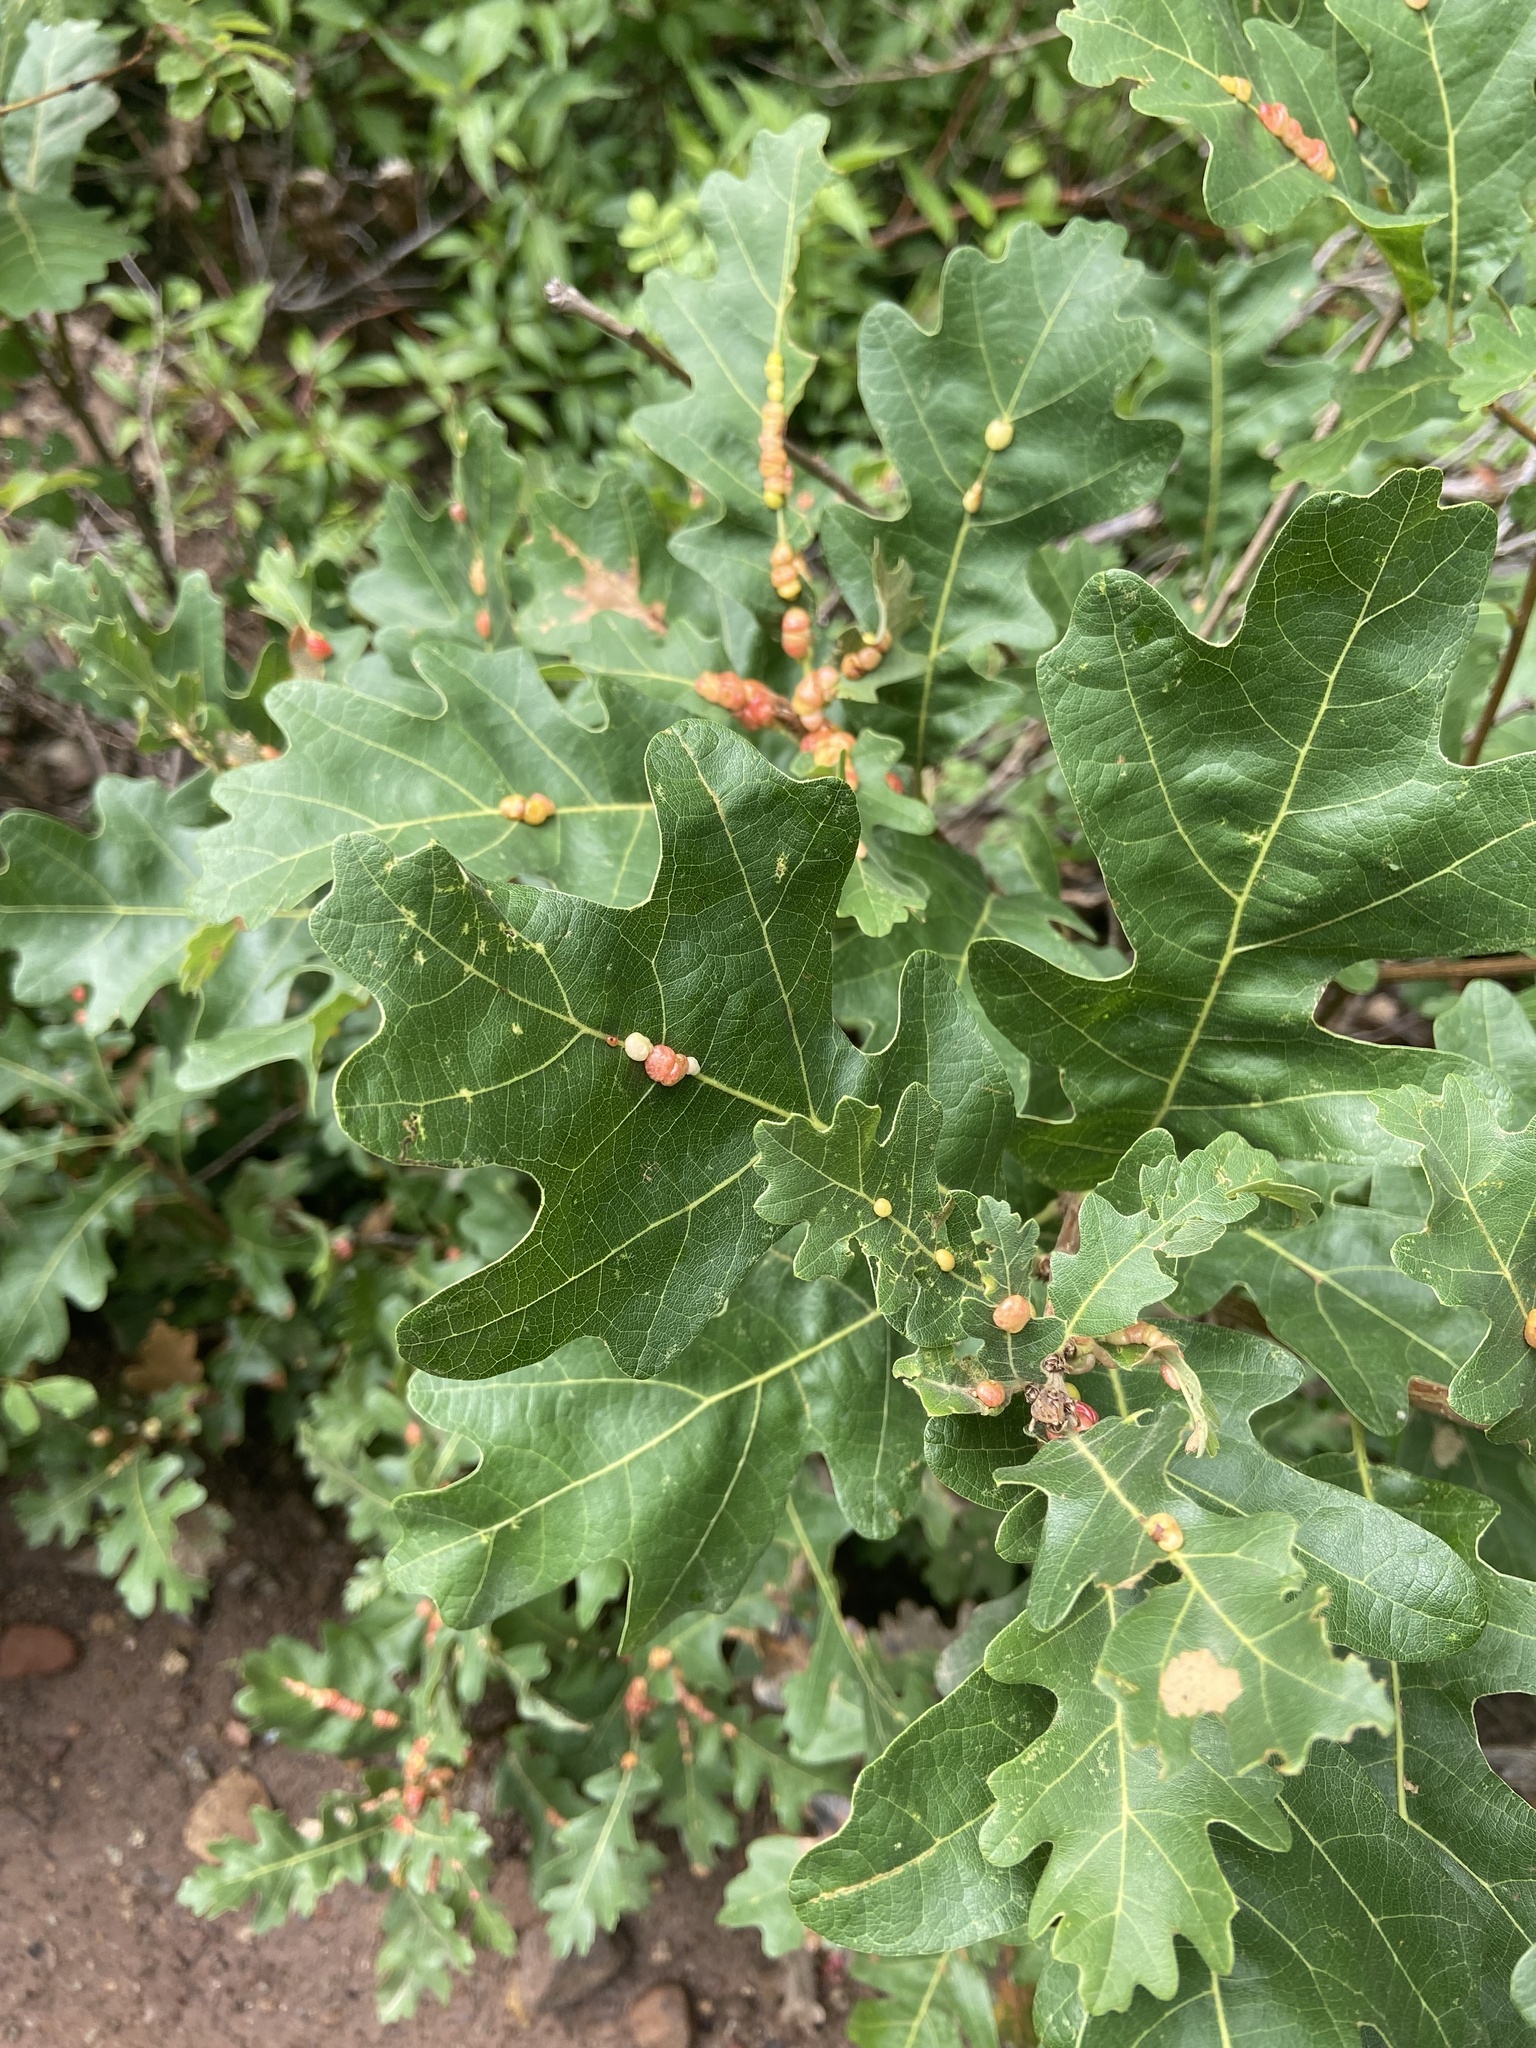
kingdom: Animalia
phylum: Arthropoda
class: Insecta
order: Hymenoptera
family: Cynipidae
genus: Trigonaspis
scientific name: Trigonaspis
